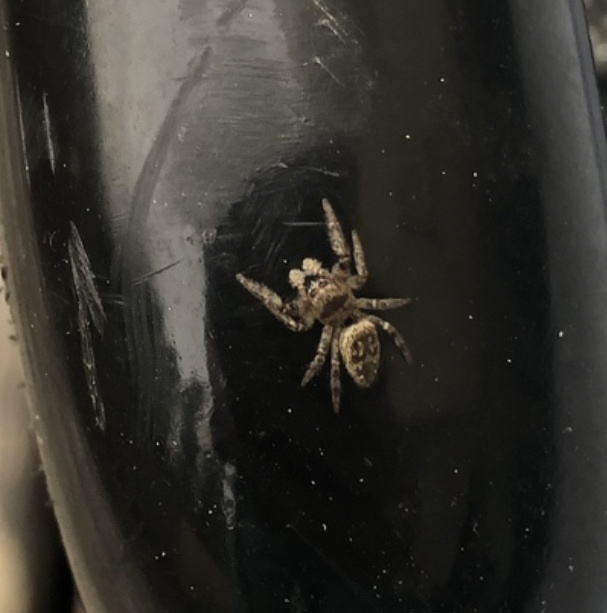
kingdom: Animalia
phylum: Arthropoda
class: Arachnida
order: Araneae
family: Salticidae
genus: Eris
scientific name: Eris militaris
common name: Bronze jumper
